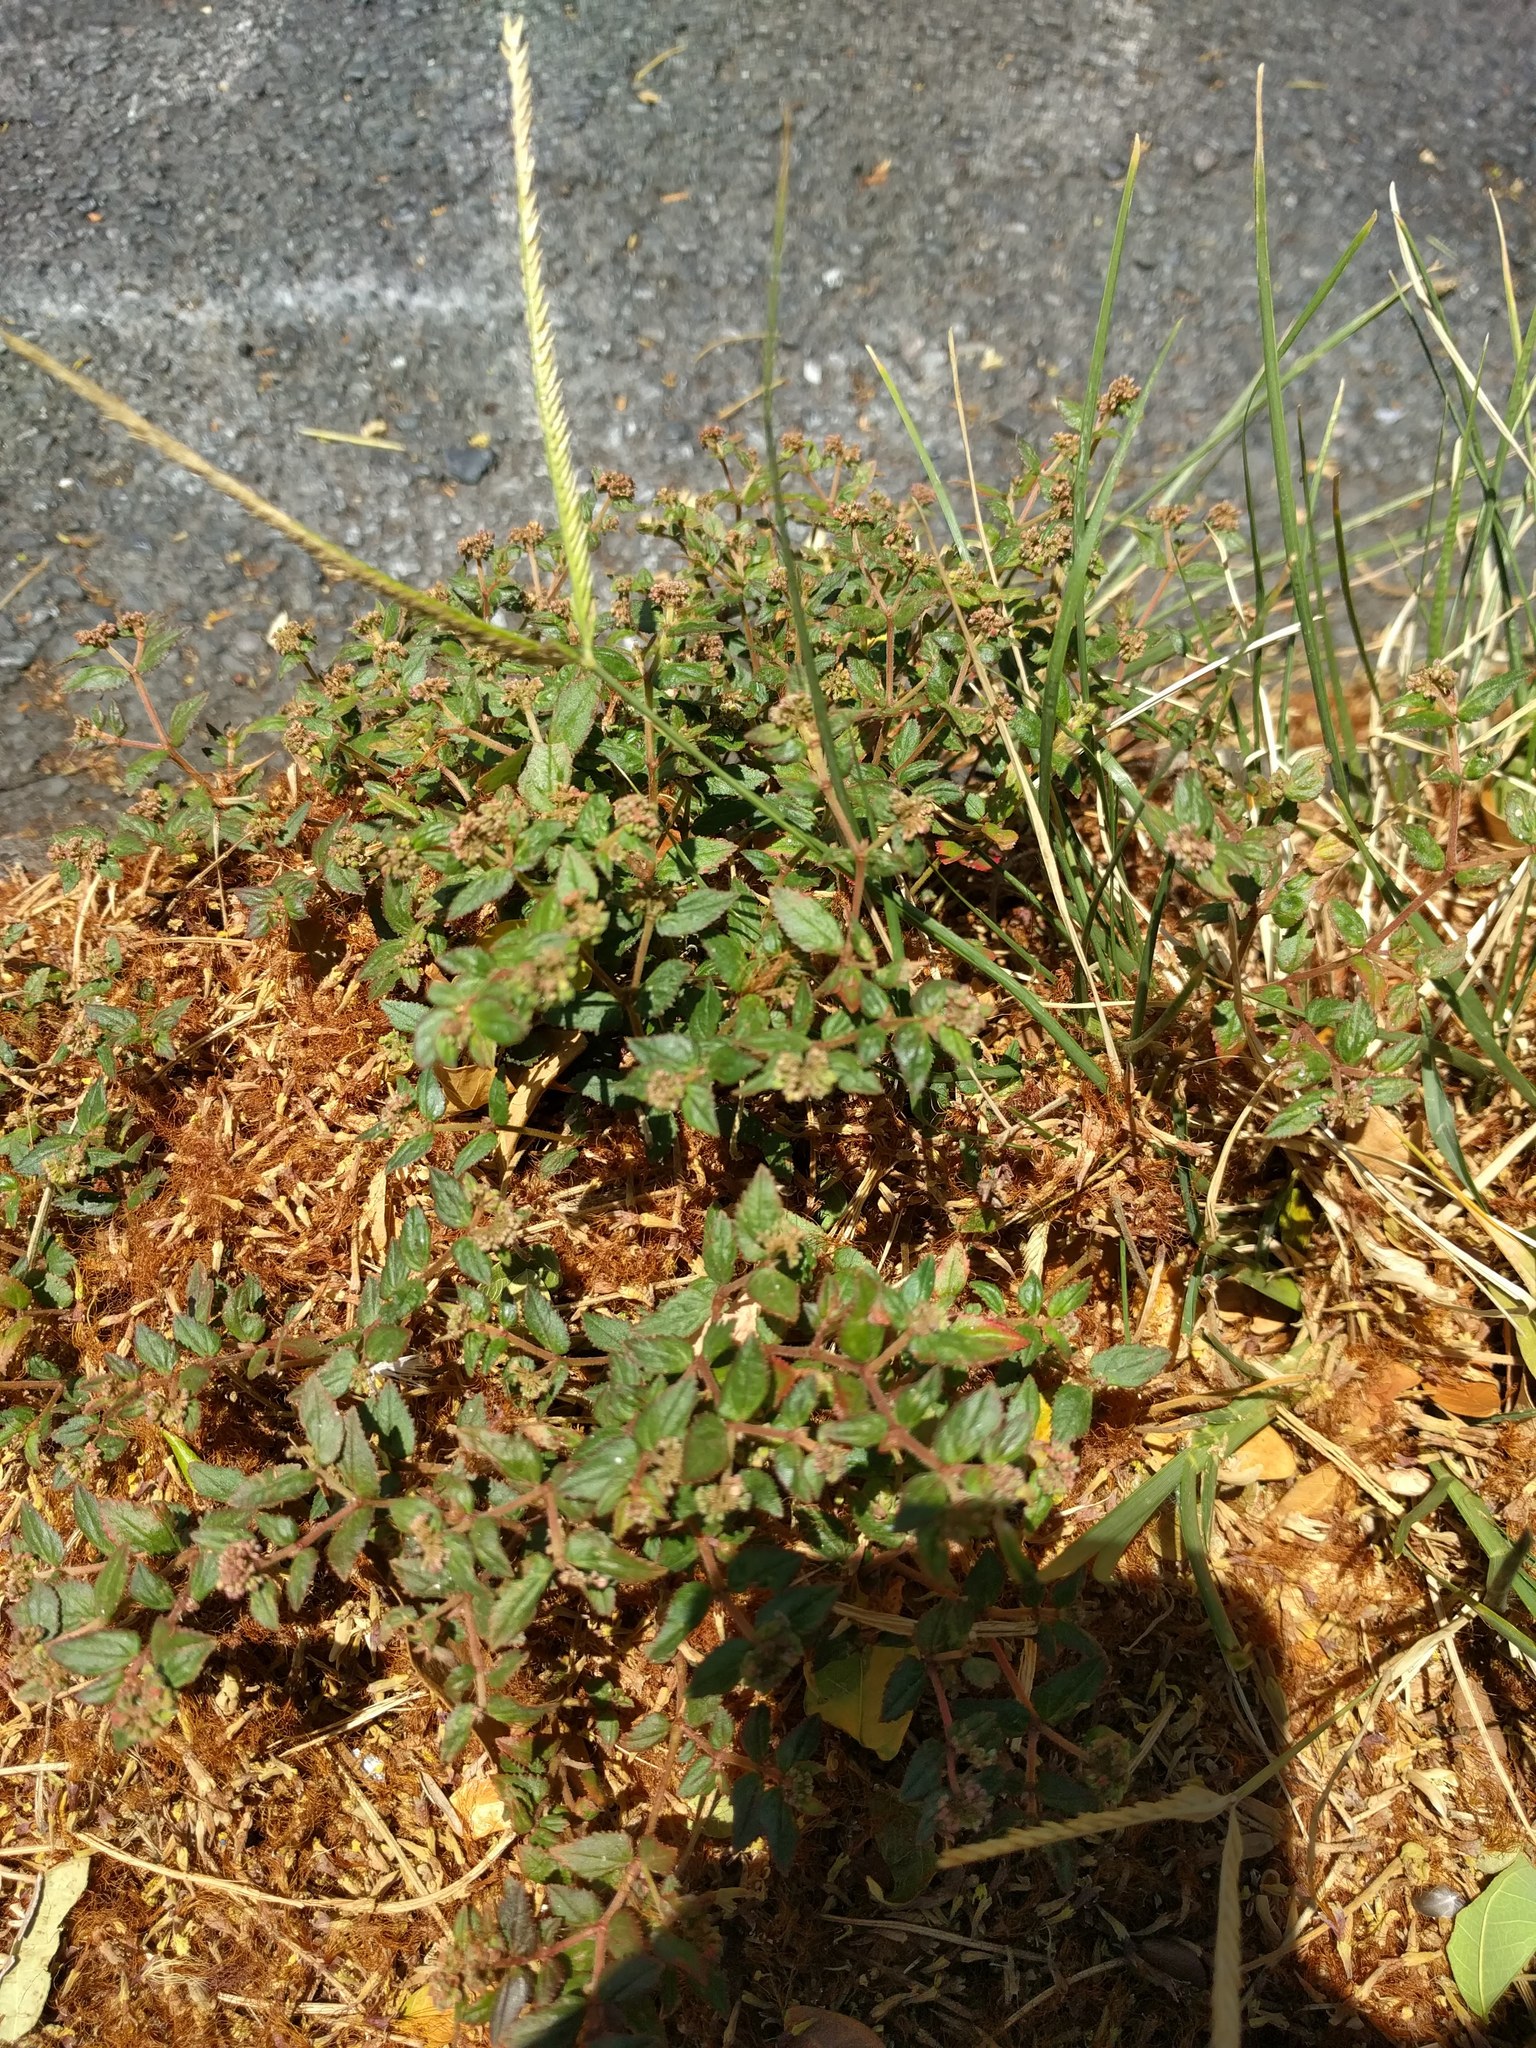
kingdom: Plantae
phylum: Tracheophyta
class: Magnoliopsida
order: Malpighiales
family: Euphorbiaceae
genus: Euphorbia
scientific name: Euphorbia ophthalmica
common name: Florida hammock sandmat
